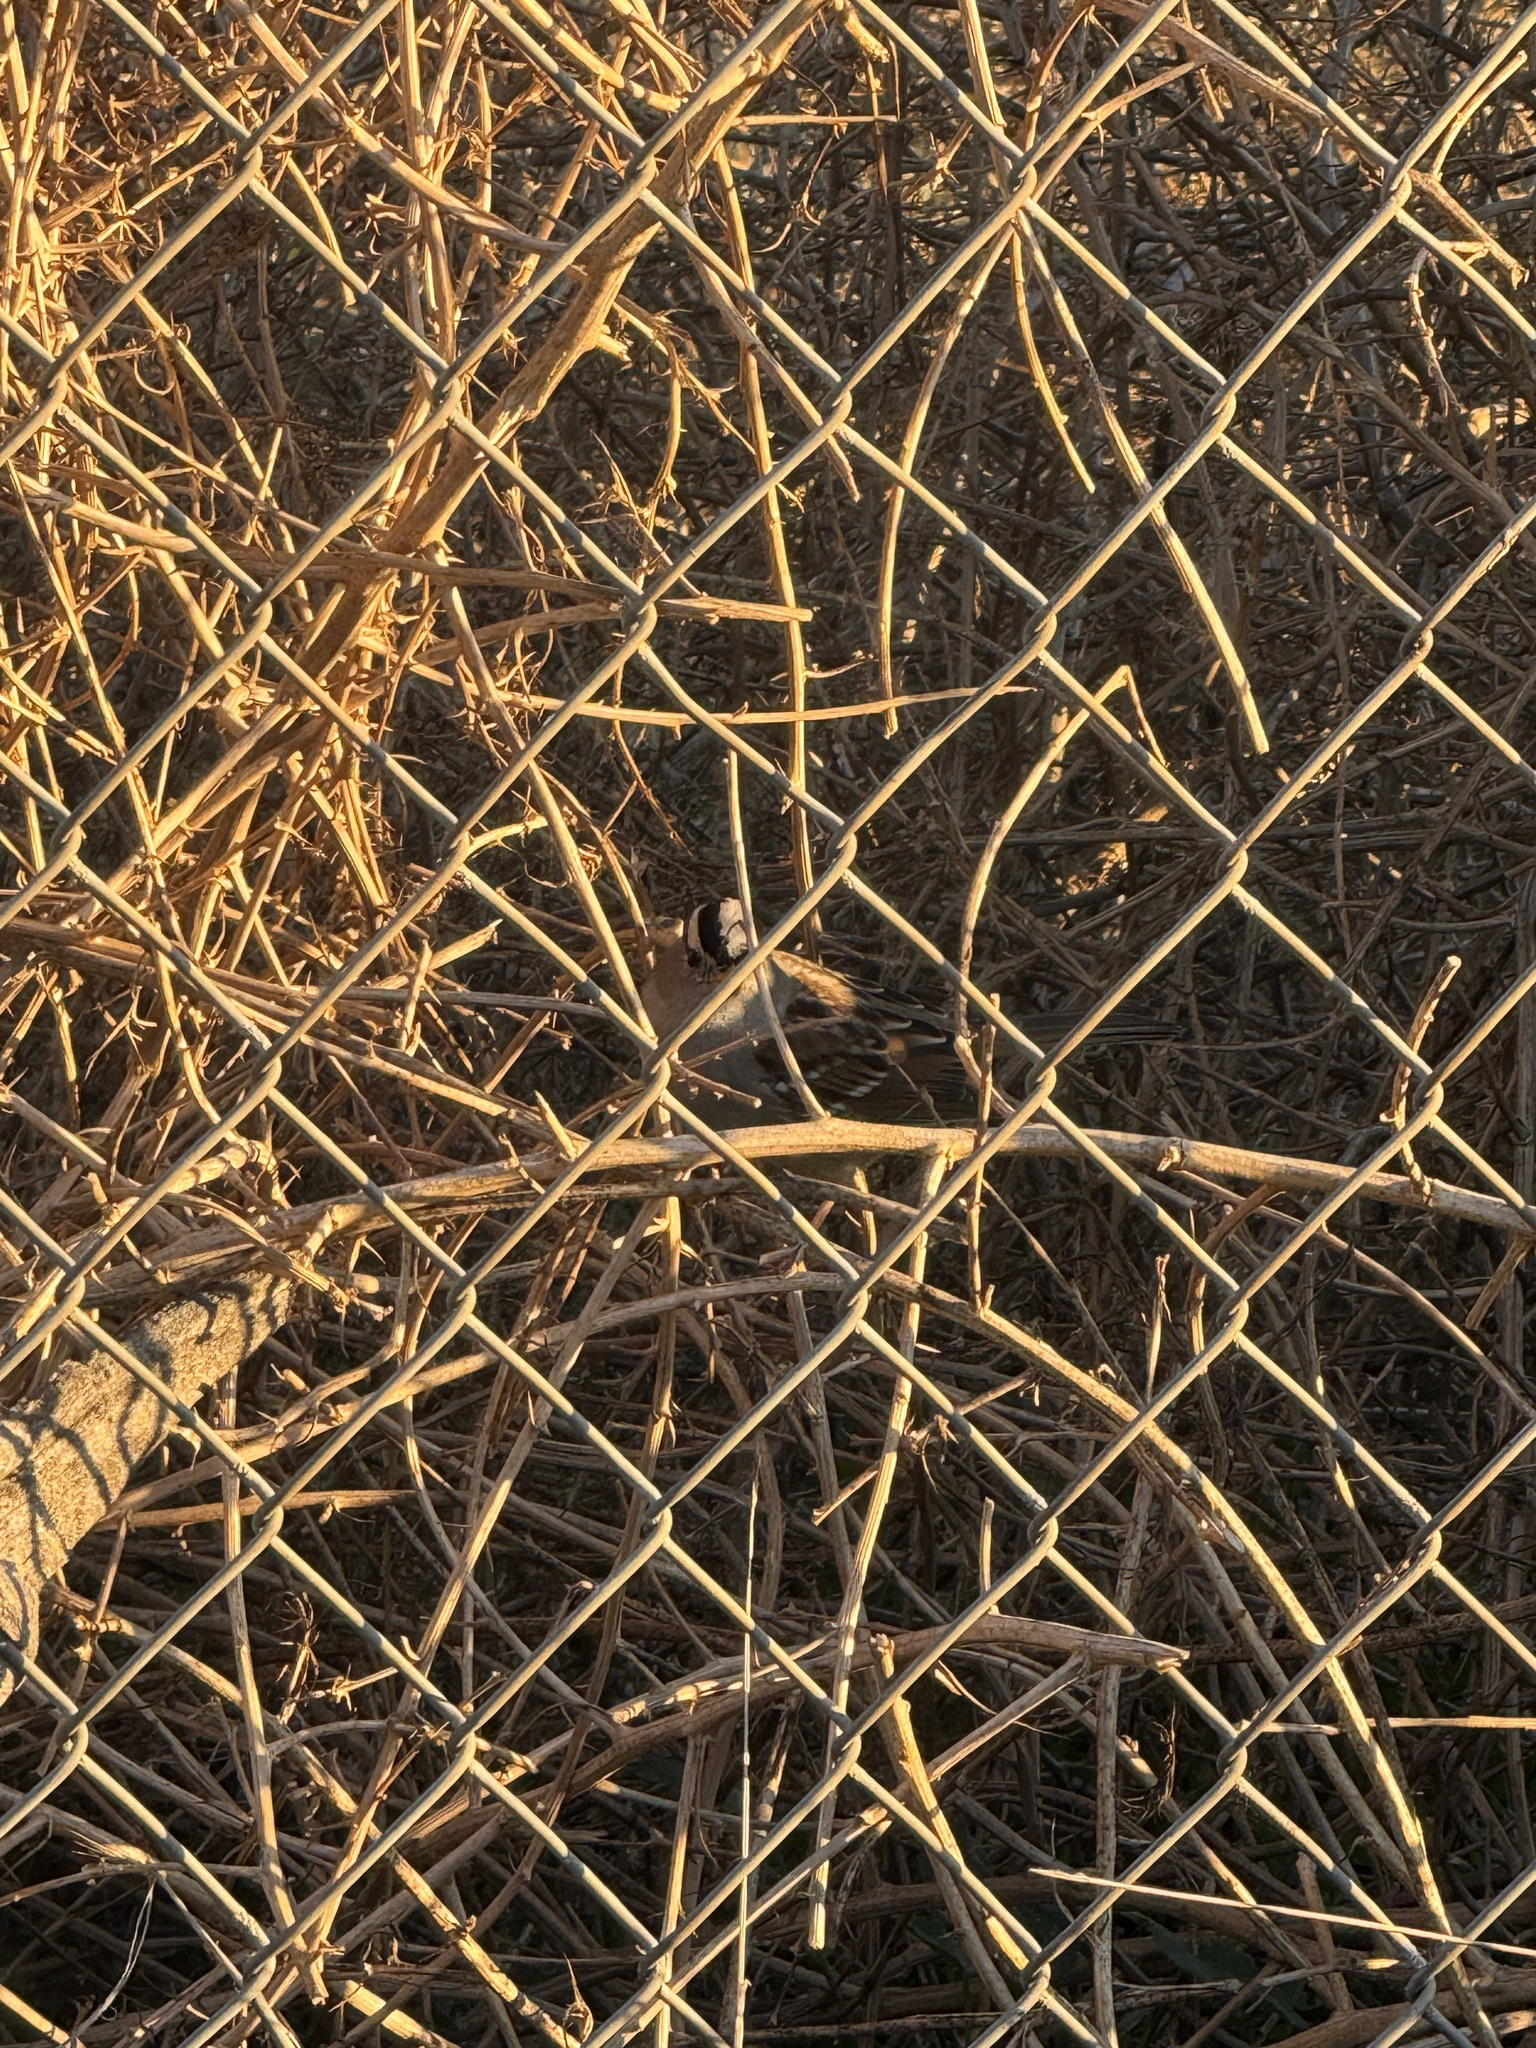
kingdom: Animalia
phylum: Chordata
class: Aves
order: Passeriformes
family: Passerellidae
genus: Zonotrichia
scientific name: Zonotrichia leucophrys
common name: White-crowned sparrow
